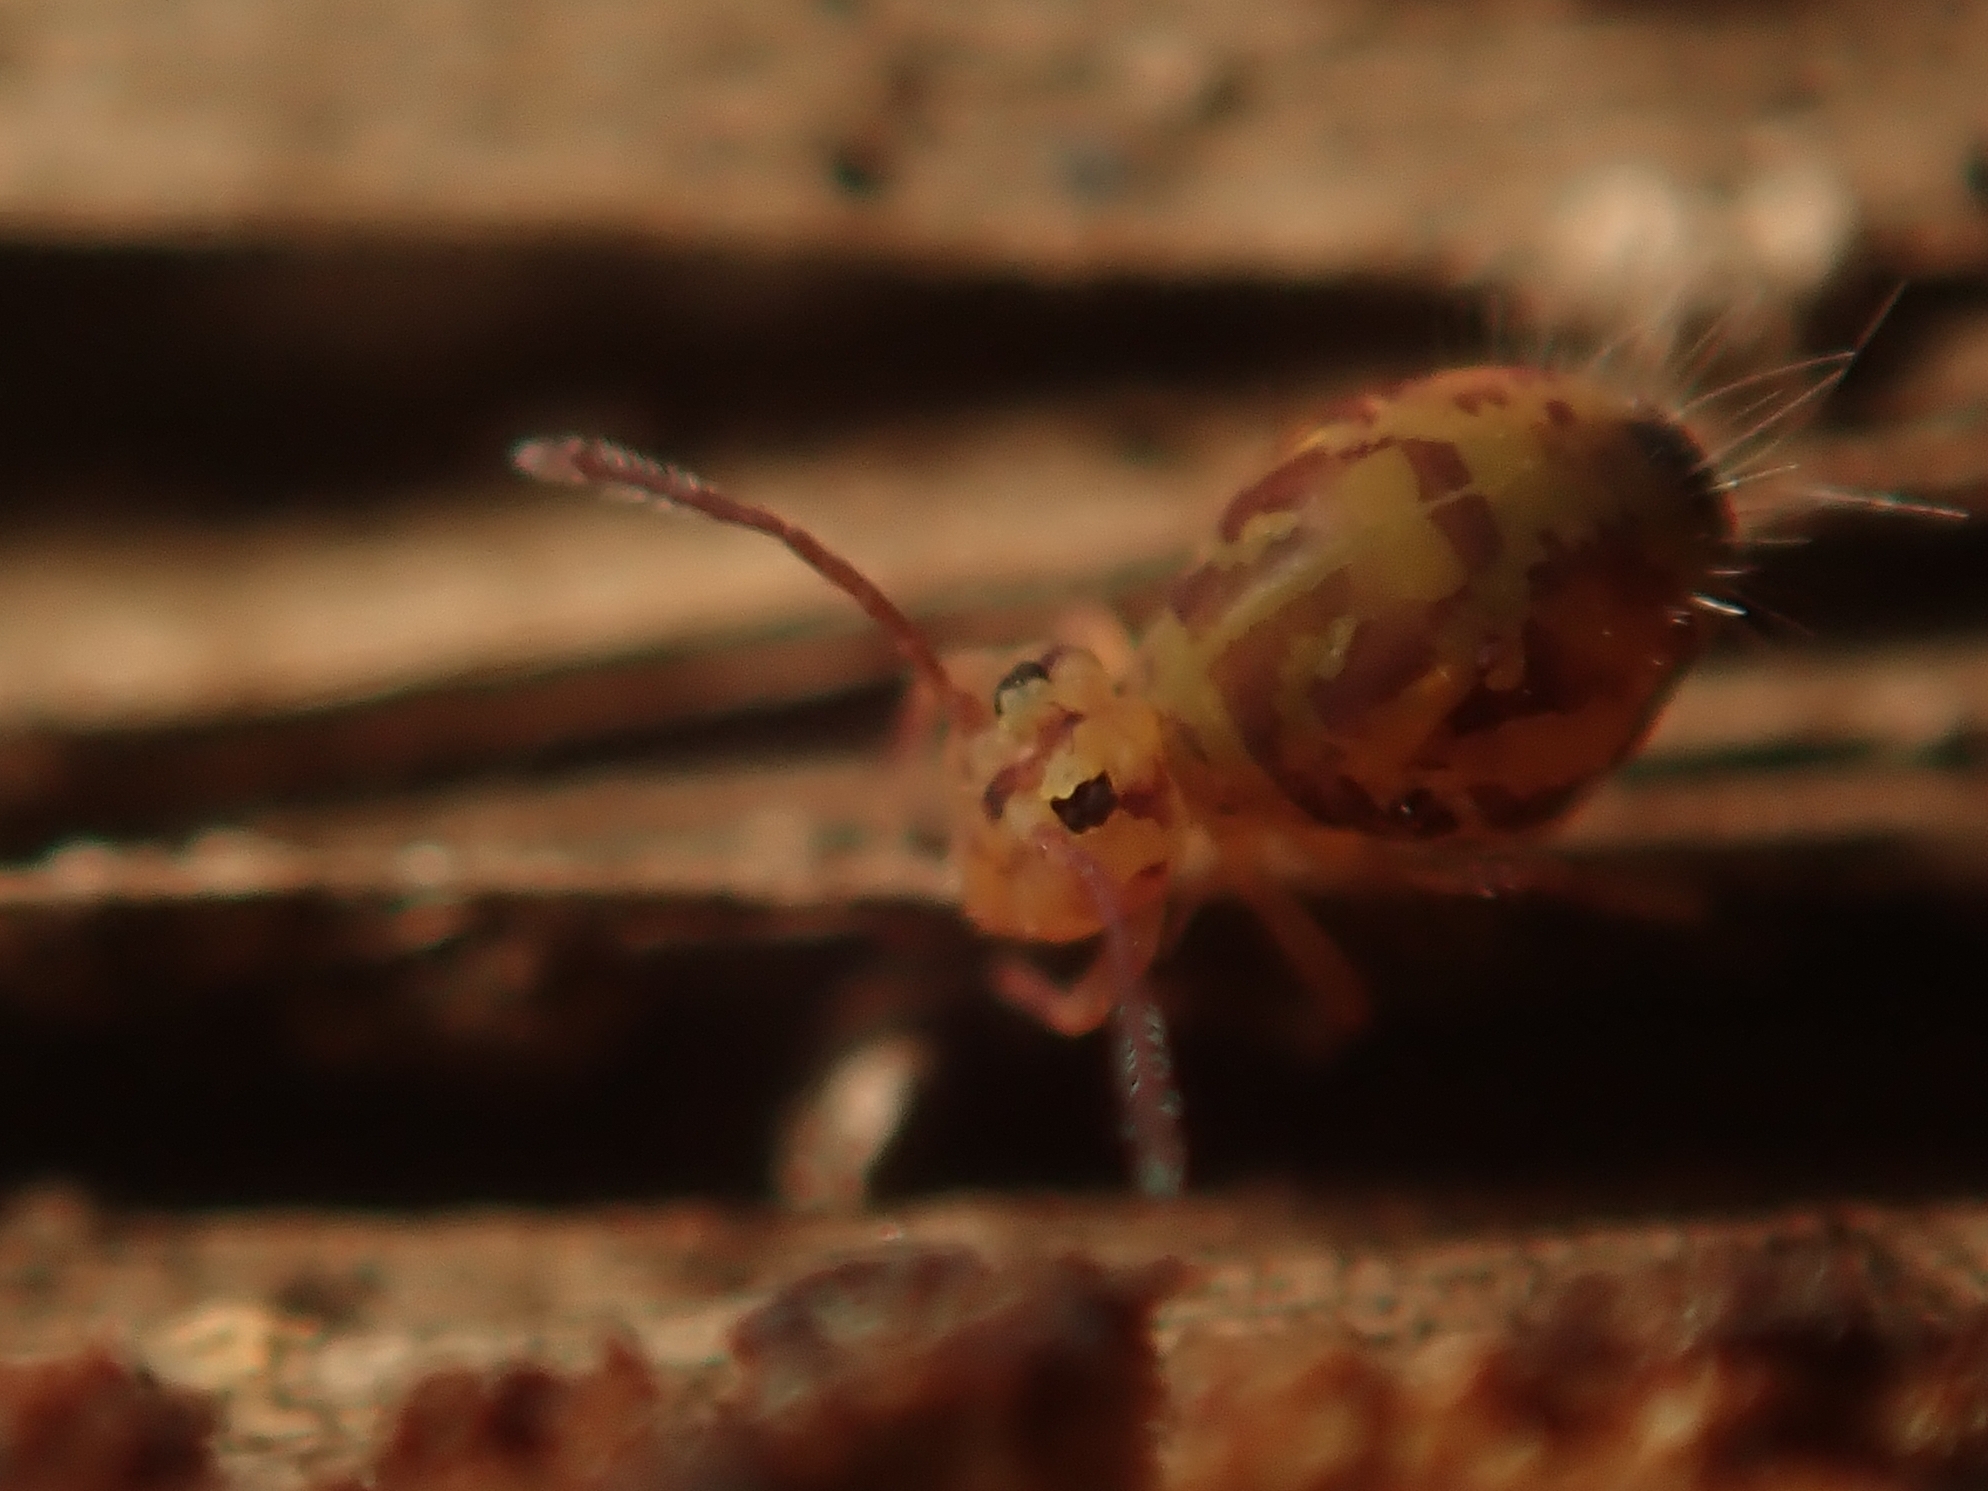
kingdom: Animalia
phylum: Arthropoda
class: Collembola
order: Symphypleona
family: Dicyrtomidae
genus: Dicyrtomina
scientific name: Dicyrtomina ornata
